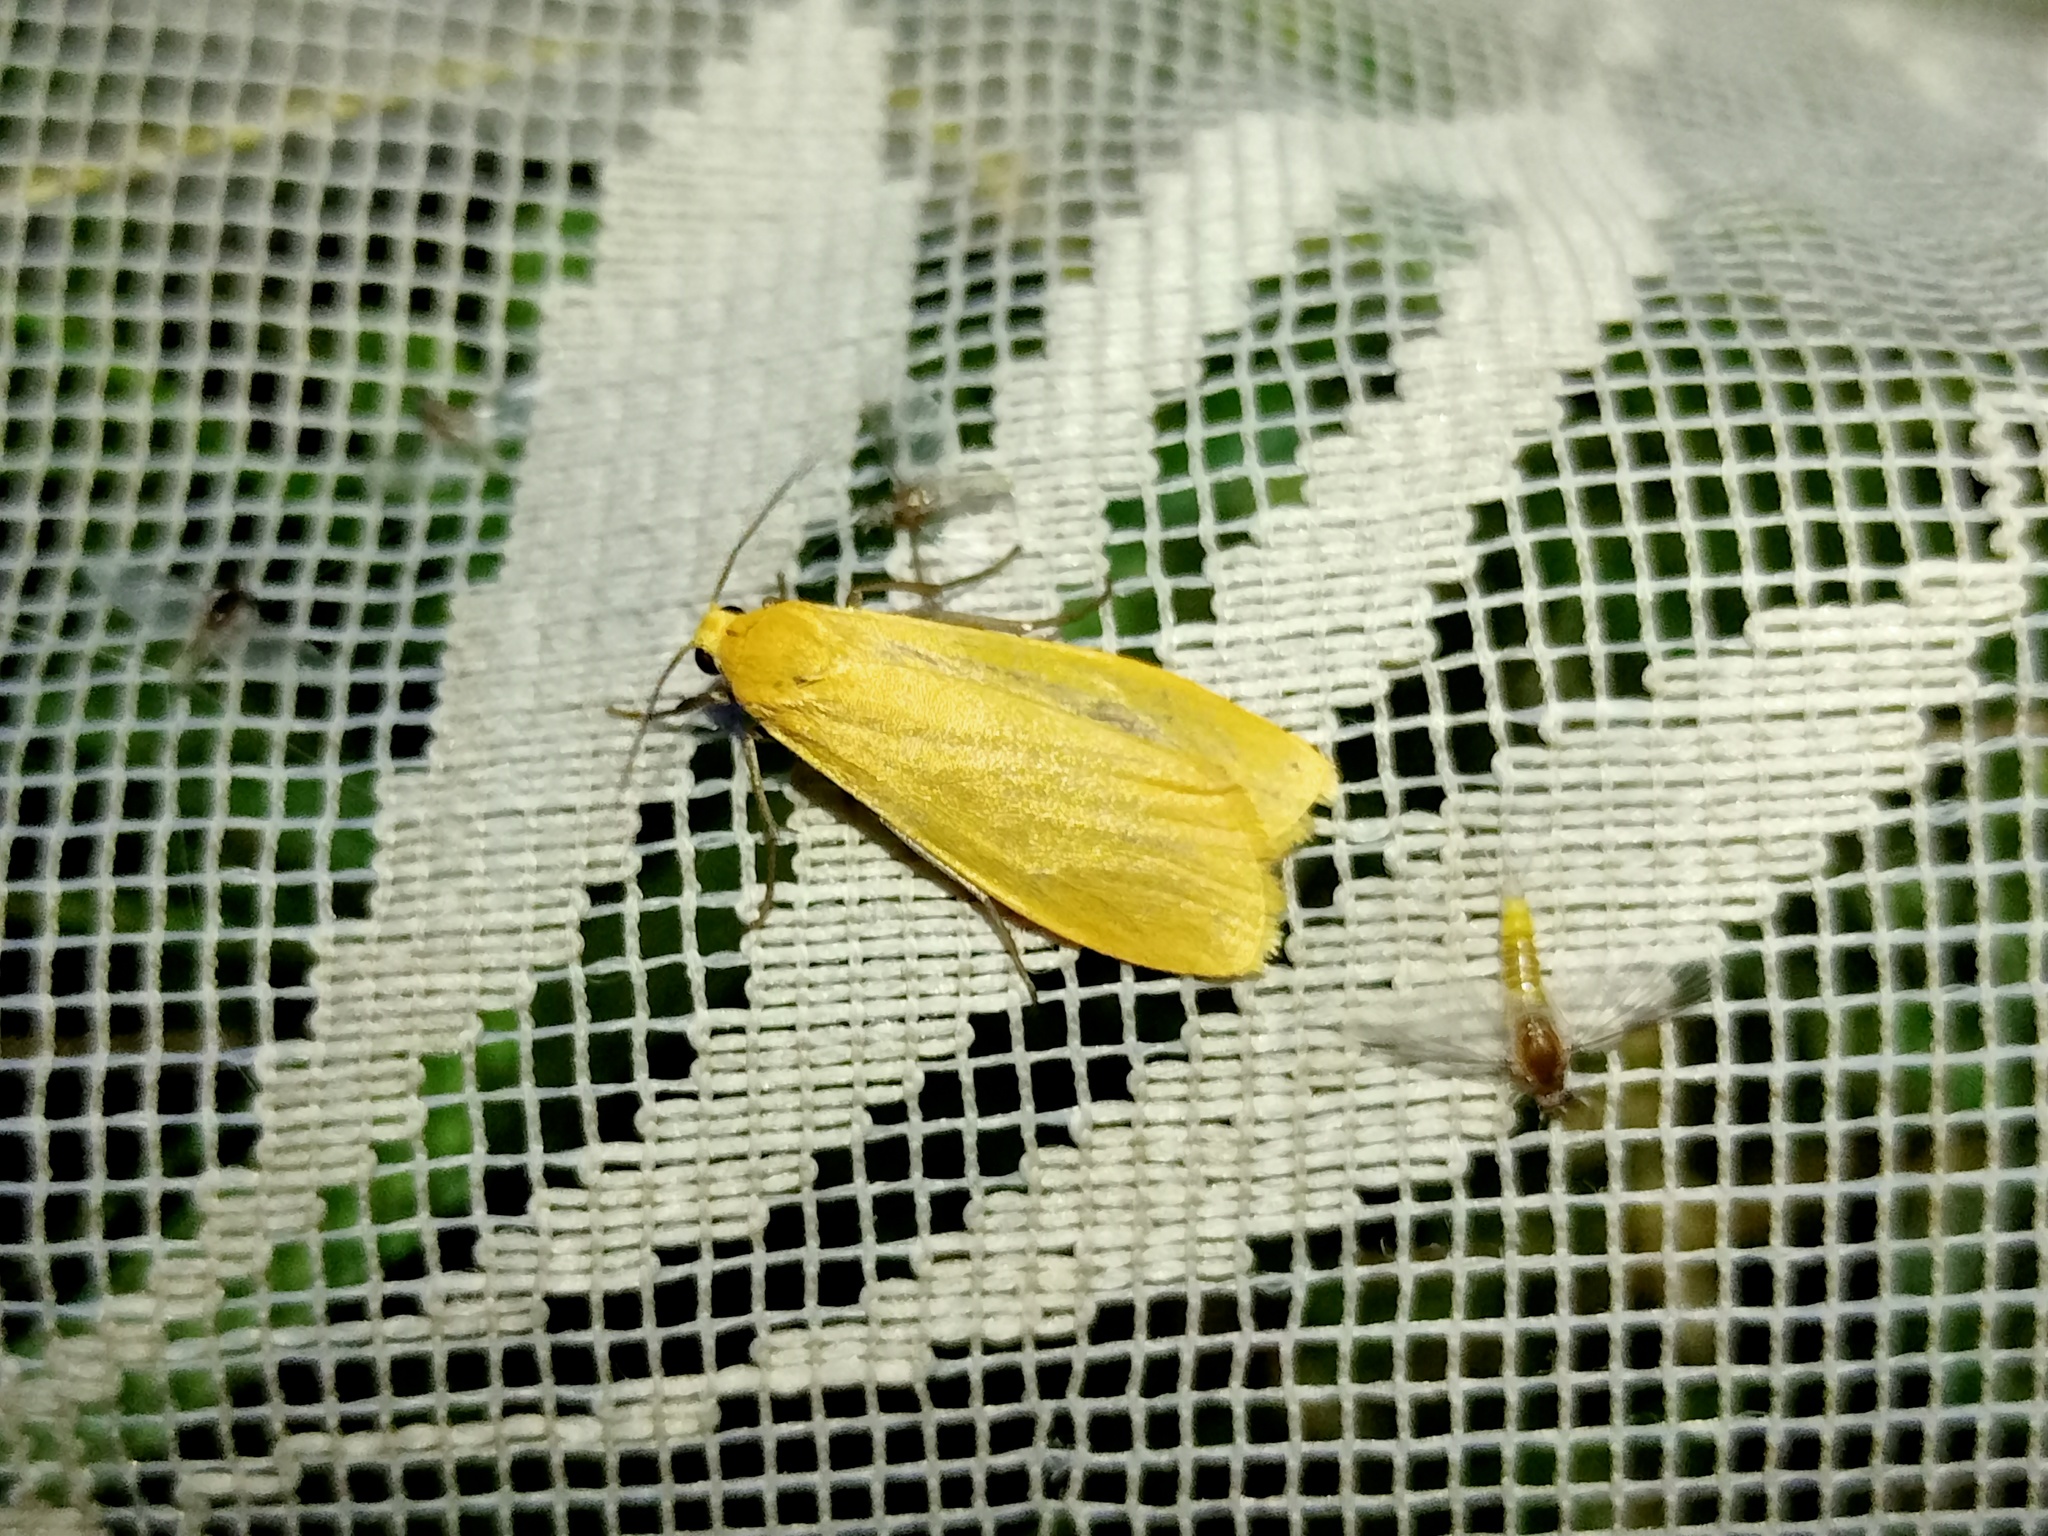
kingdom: Animalia
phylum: Arthropoda
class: Insecta
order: Lepidoptera
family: Erebidae
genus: Wittia
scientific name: Wittia sororcula
